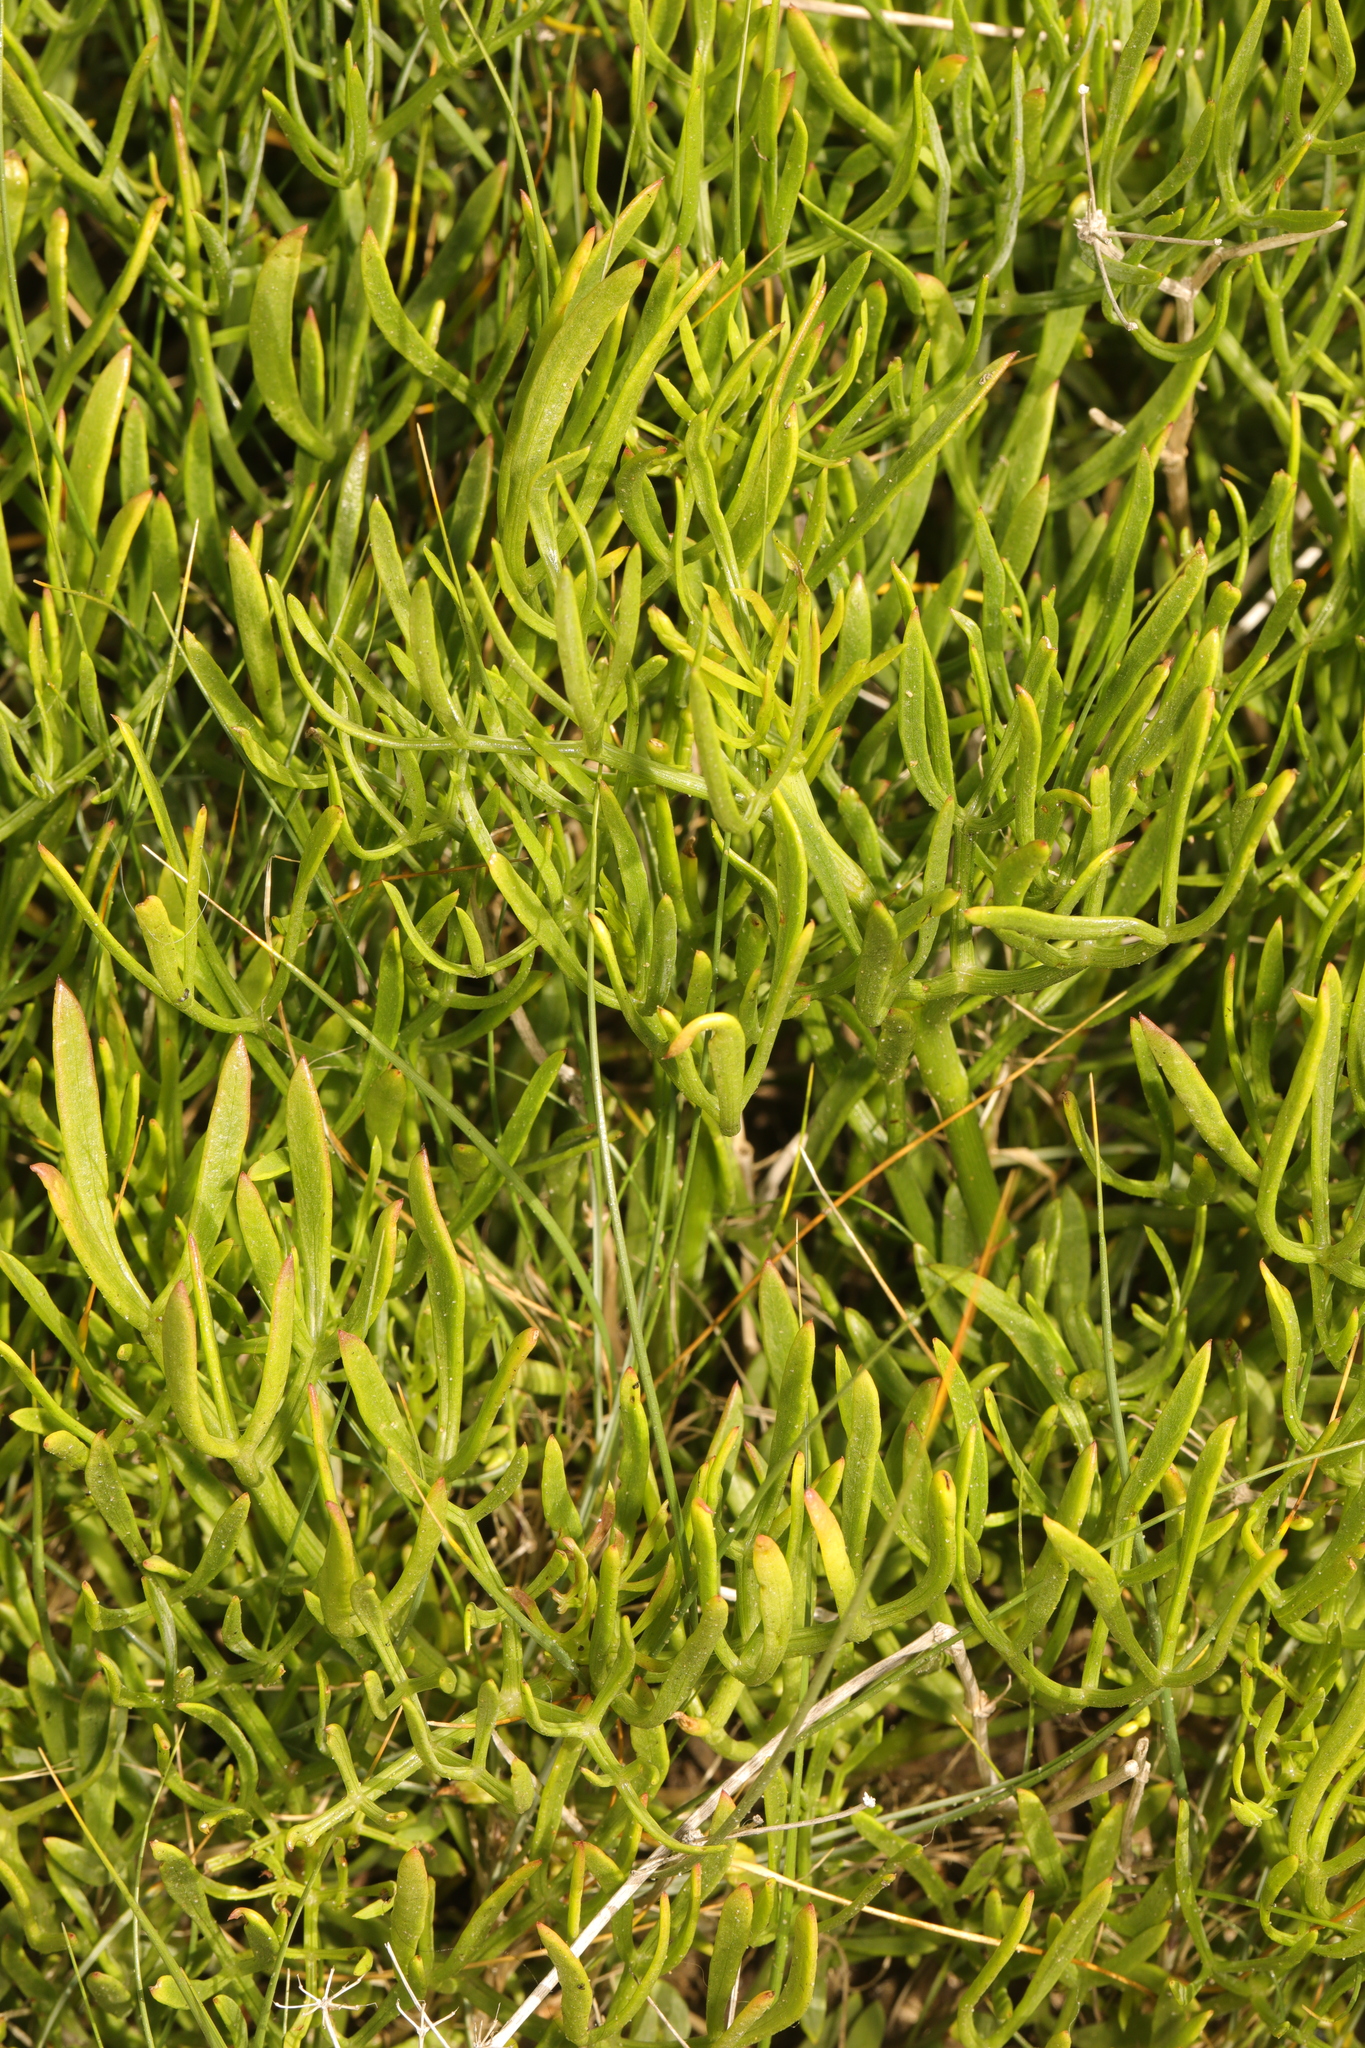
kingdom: Plantae
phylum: Tracheophyta
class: Magnoliopsida
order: Apiales
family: Apiaceae
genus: Crithmum
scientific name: Crithmum maritimum
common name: Rock samphire
